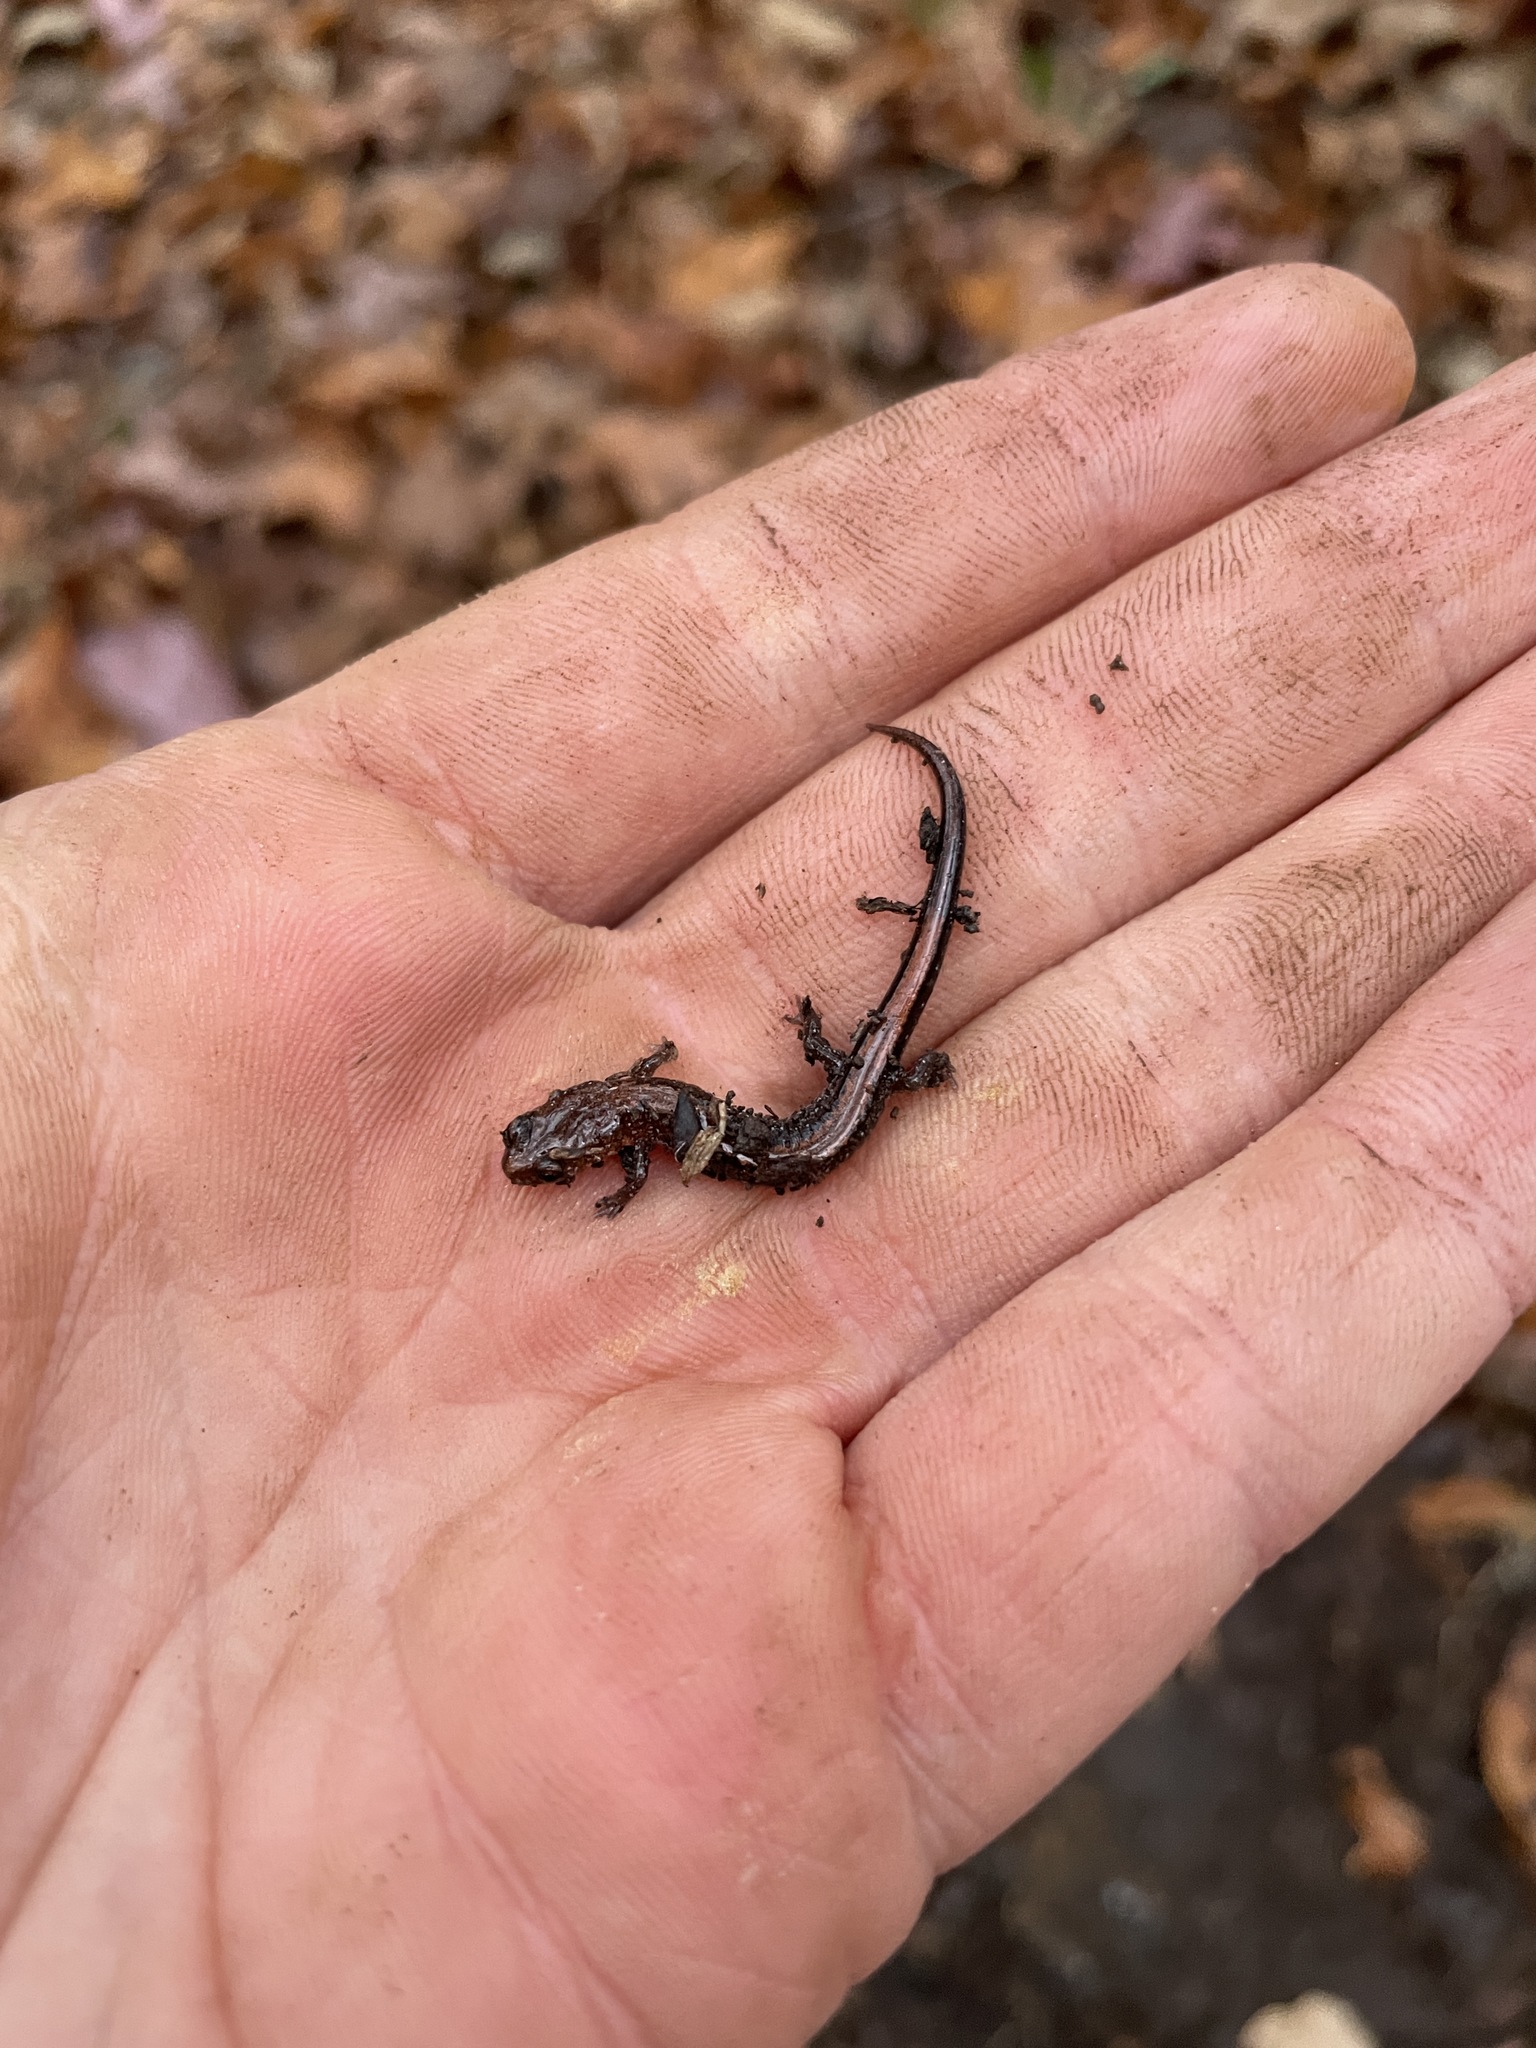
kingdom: Animalia
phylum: Chordata
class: Amphibia
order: Caudata
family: Plethodontidae
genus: Plethodon
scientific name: Plethodon serratus
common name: Southern red-backed salamander
